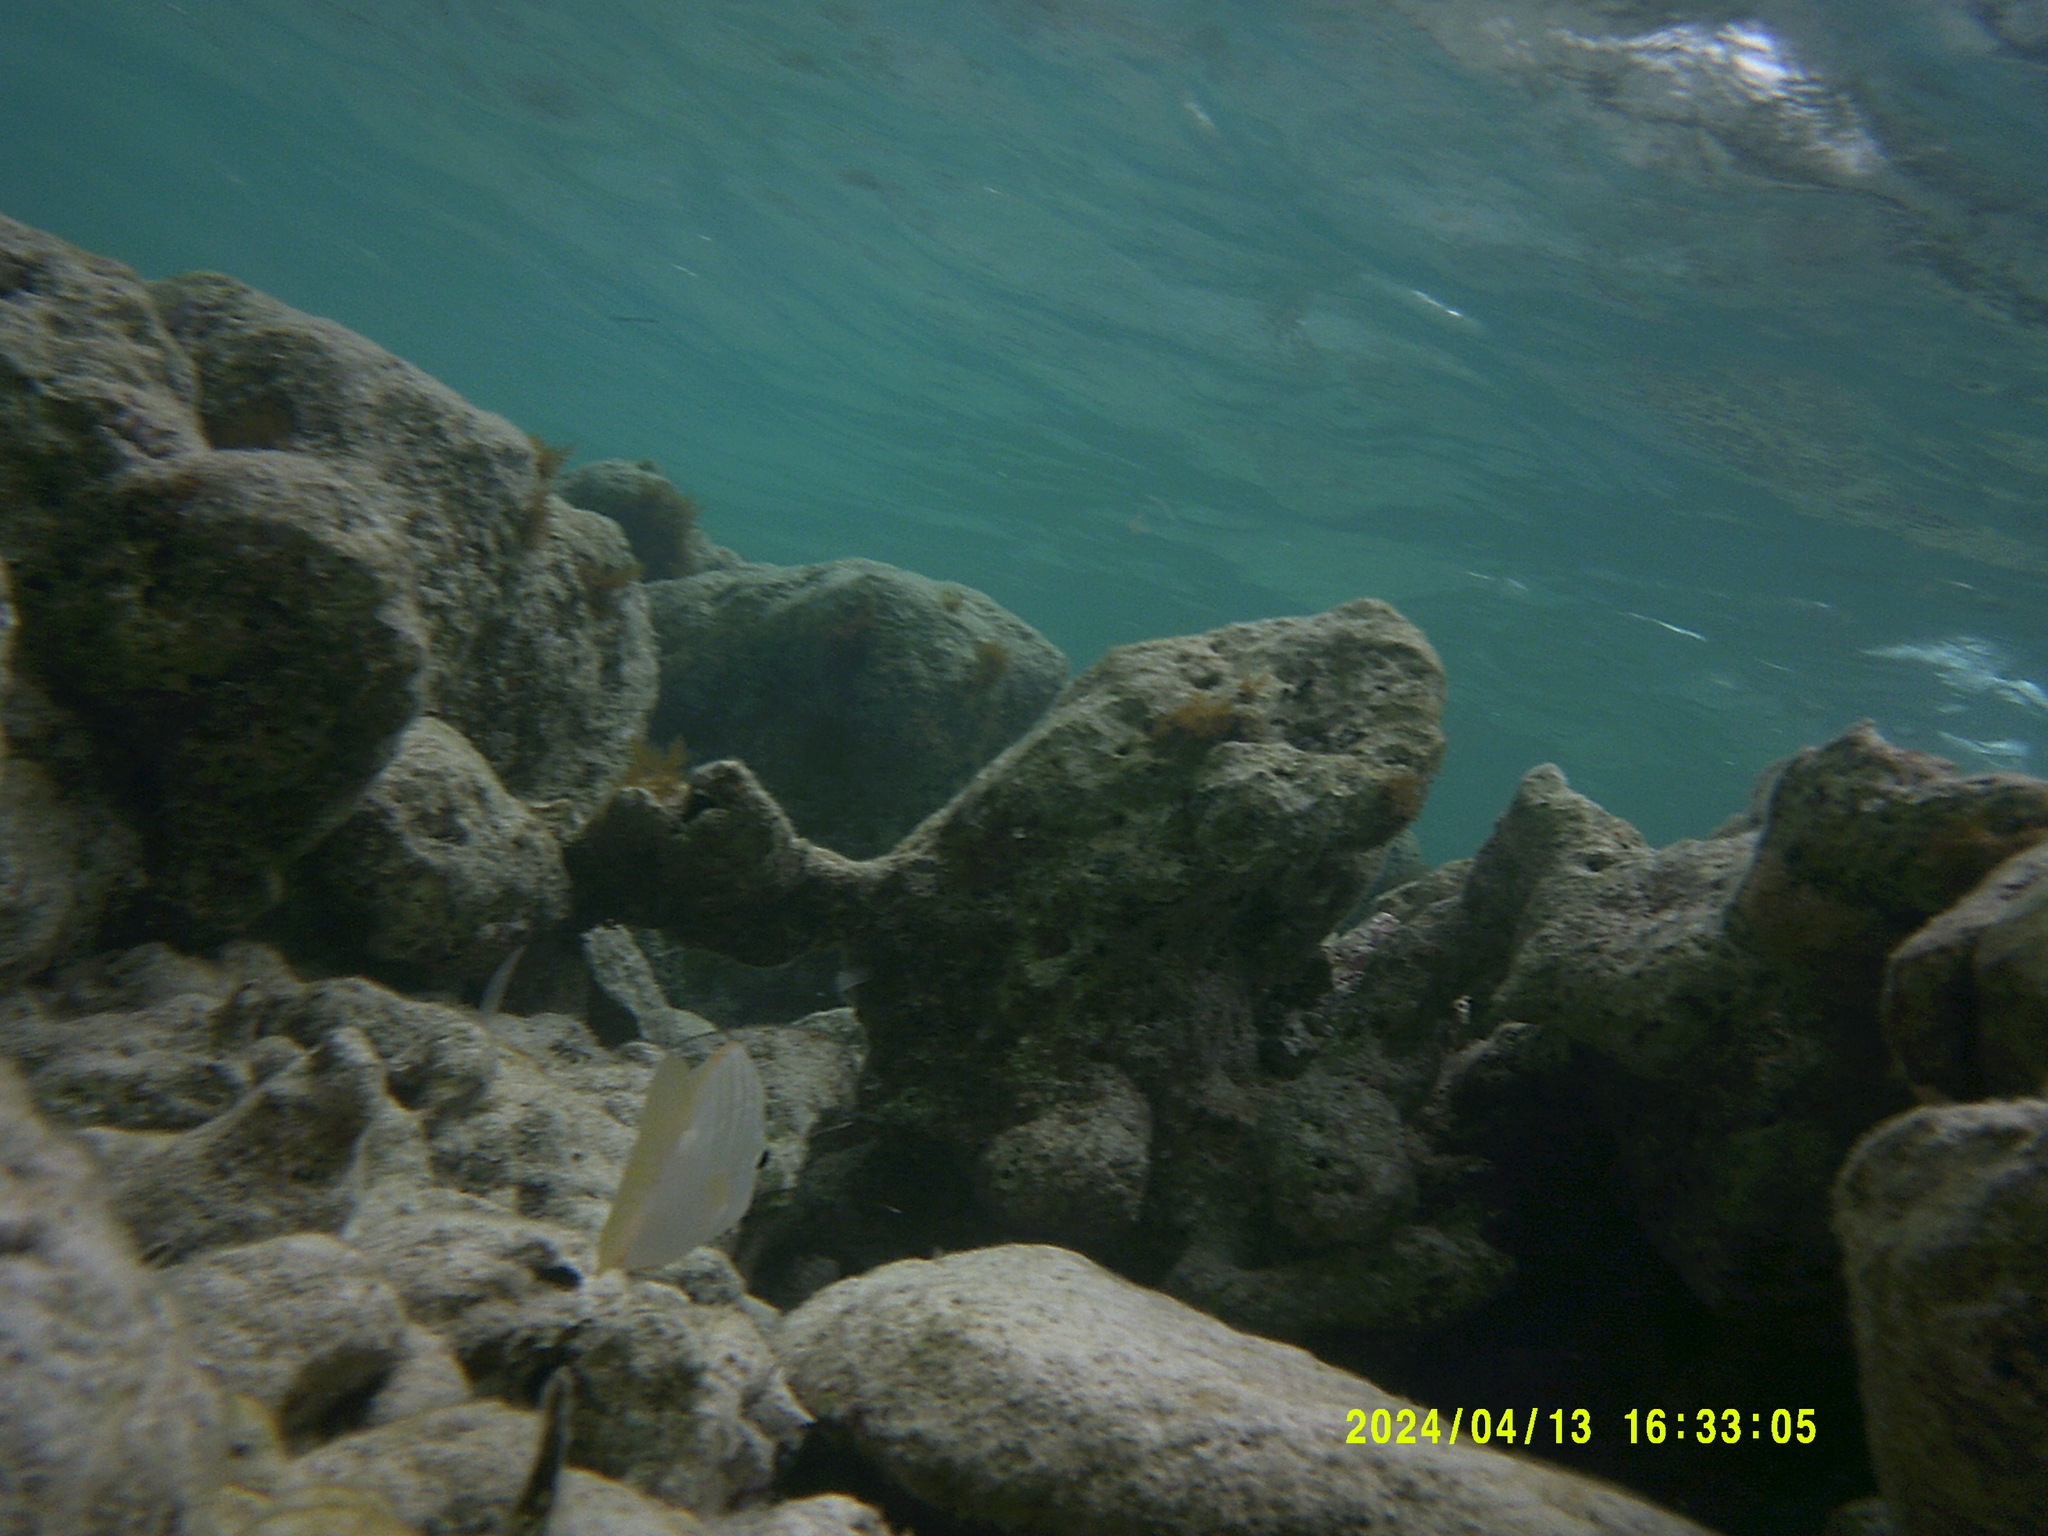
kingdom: Animalia
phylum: Chordata
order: Perciformes
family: Lutjanidae
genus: Lutjanus
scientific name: Lutjanus apodus
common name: Schoolmaster
